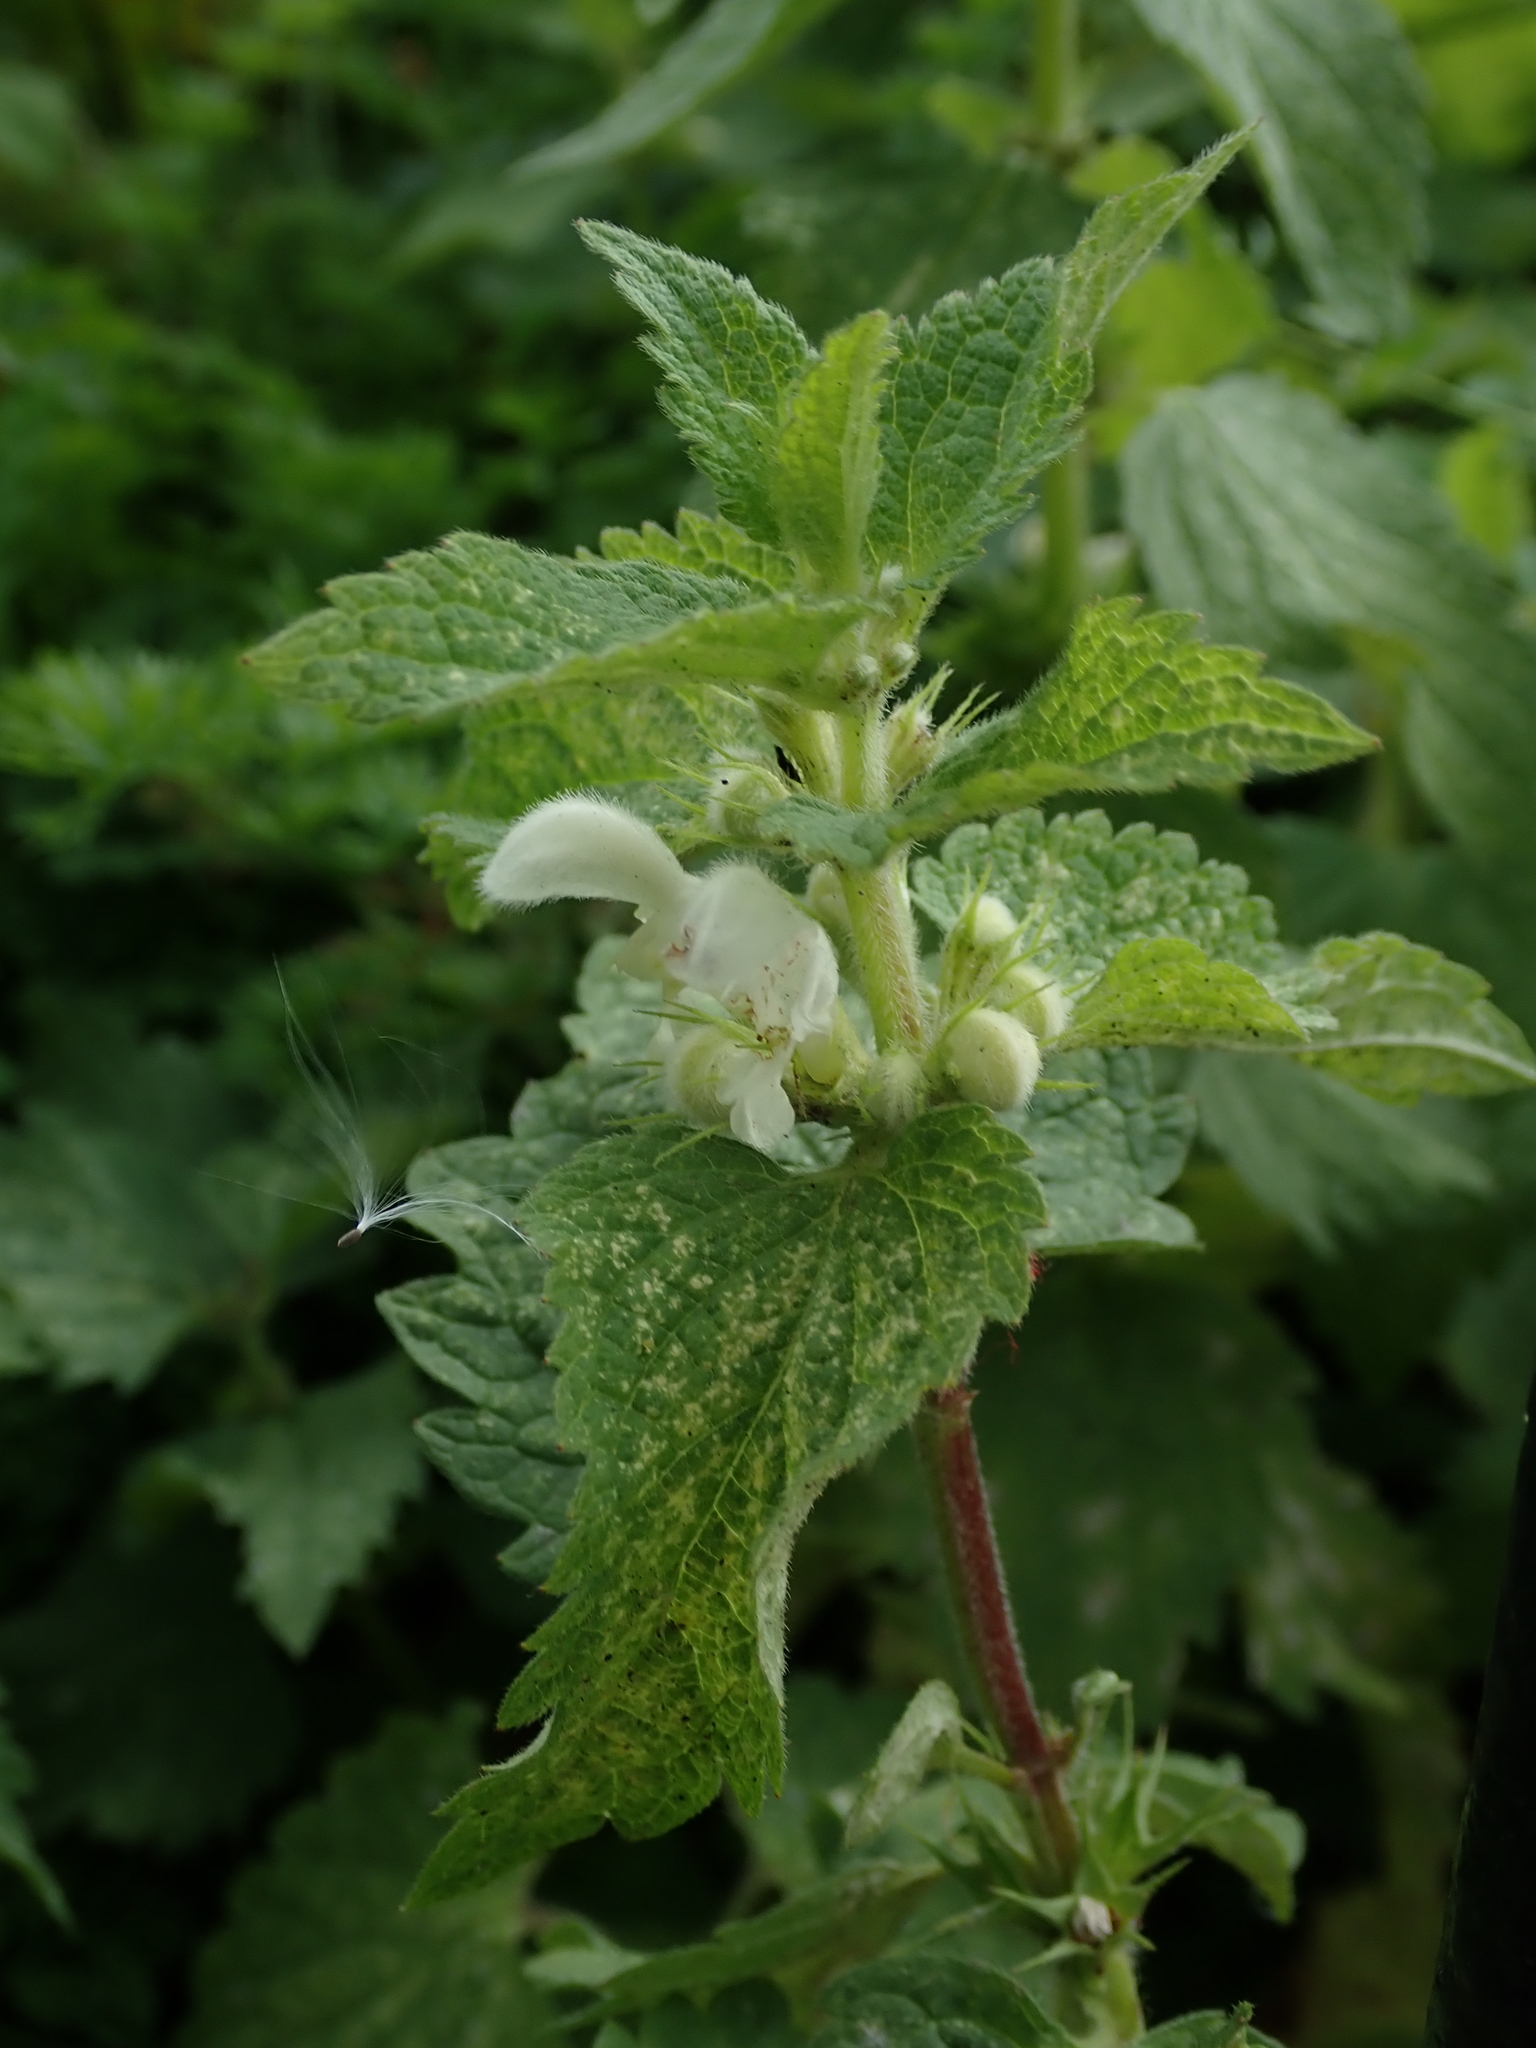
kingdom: Plantae
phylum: Tracheophyta
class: Magnoliopsida
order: Lamiales
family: Lamiaceae
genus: Lamium
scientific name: Lamium album
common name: White dead-nettle
